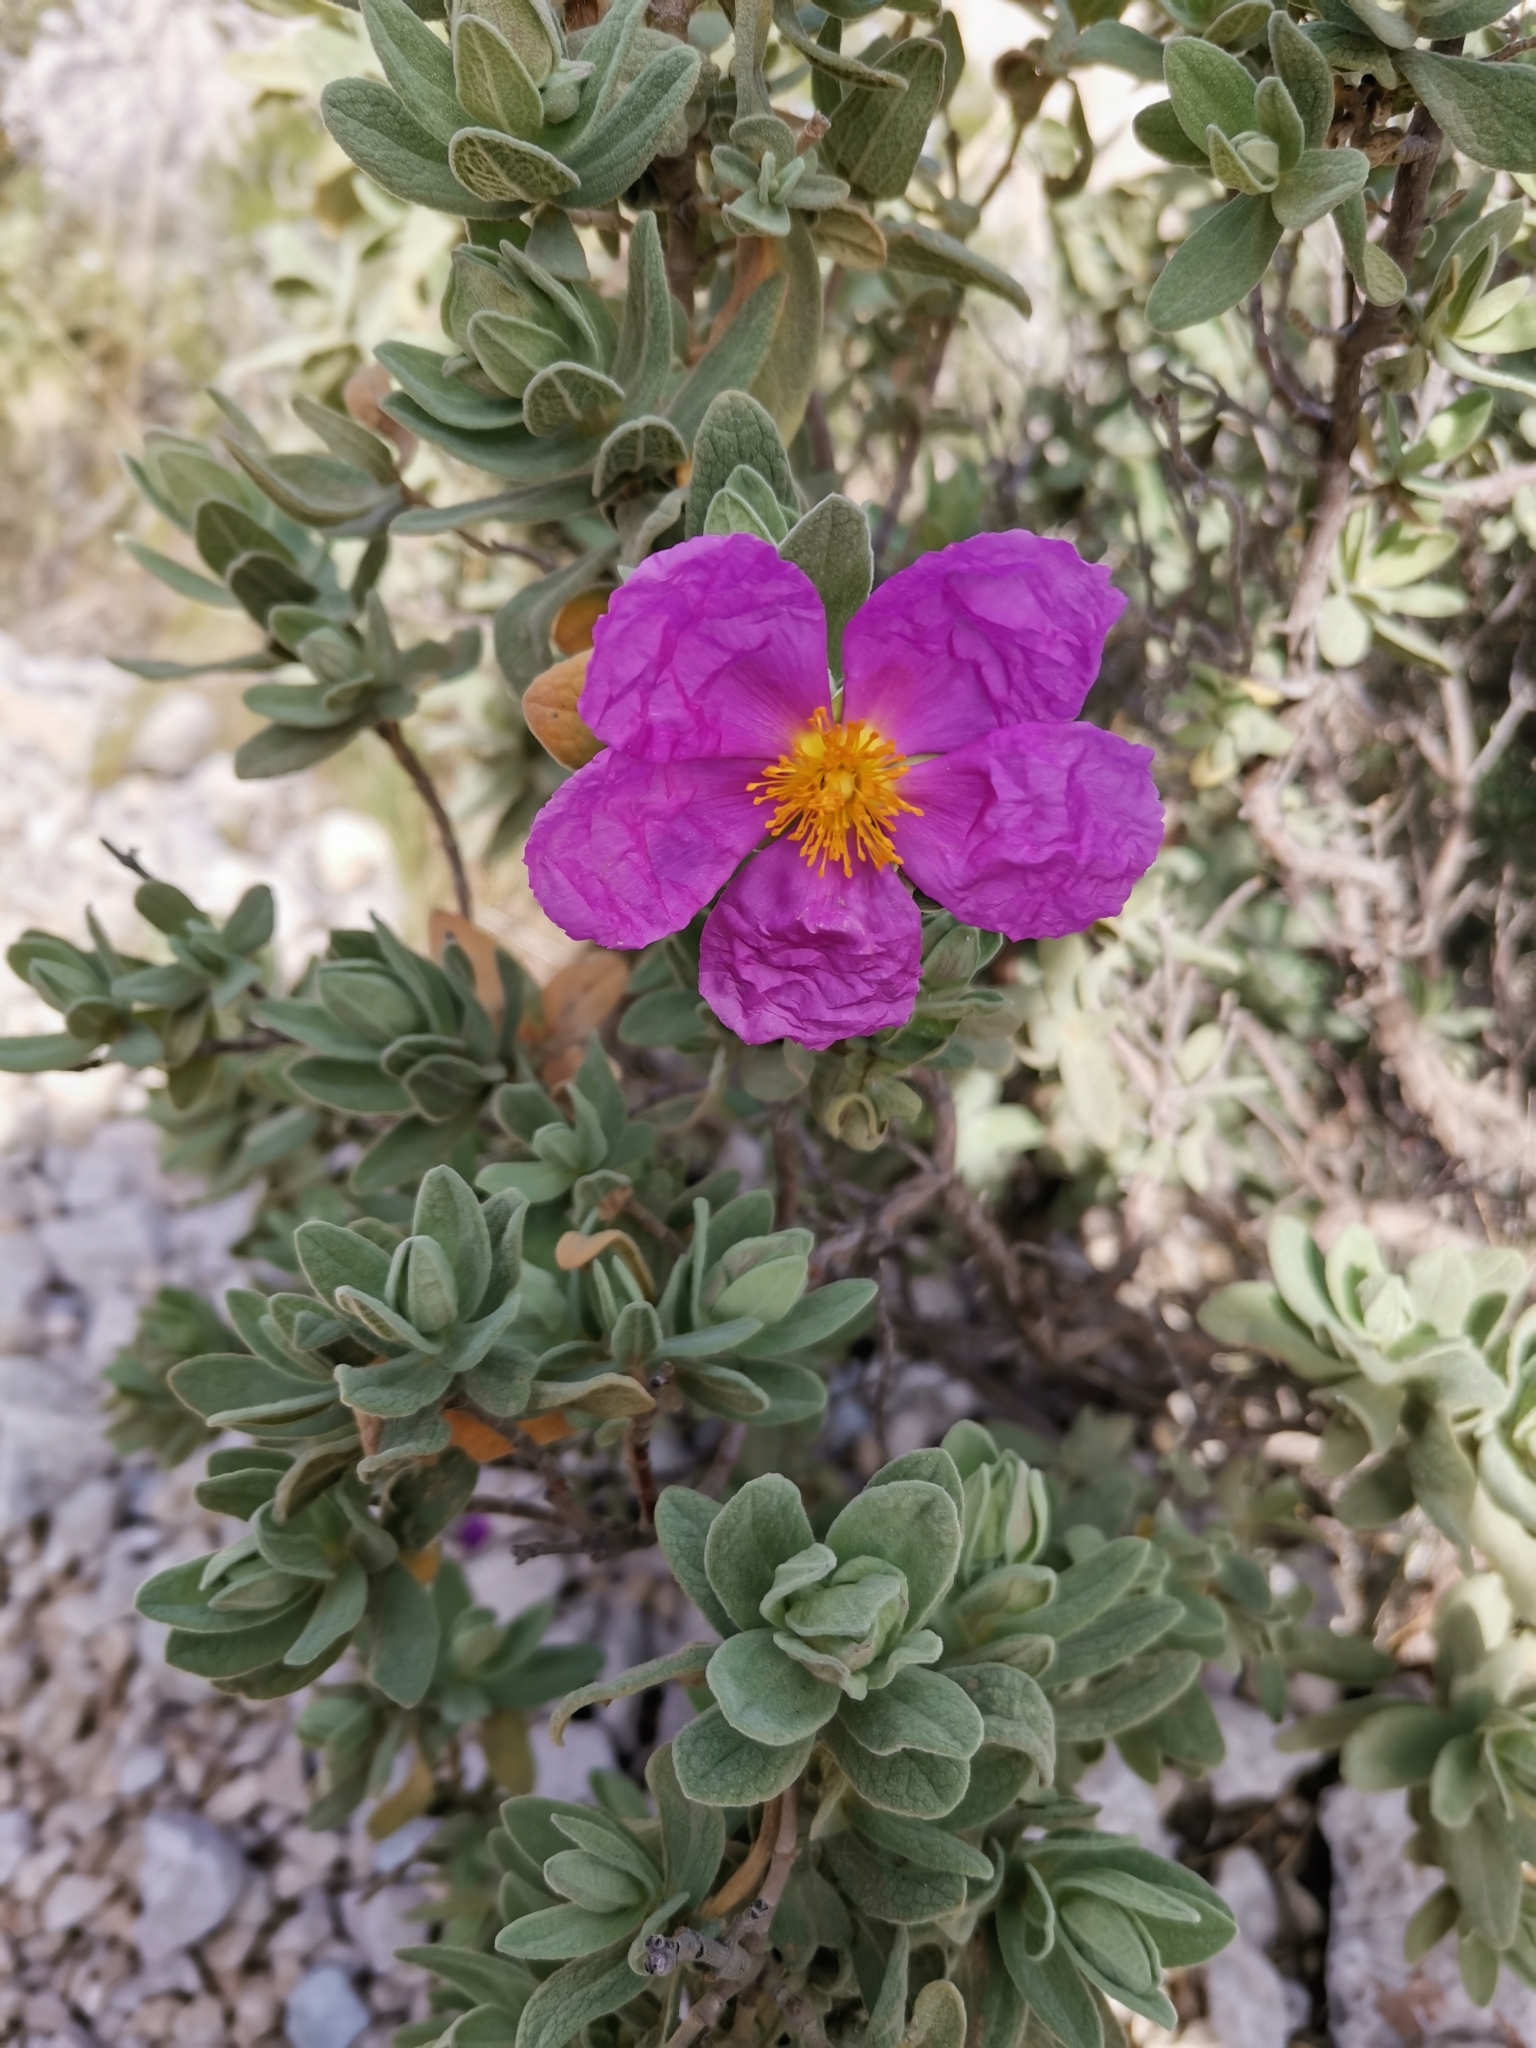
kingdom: Plantae
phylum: Tracheophyta
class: Magnoliopsida
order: Malvales
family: Cistaceae
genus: Cistus
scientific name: Cistus albidus
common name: White-leaf rock-rose
